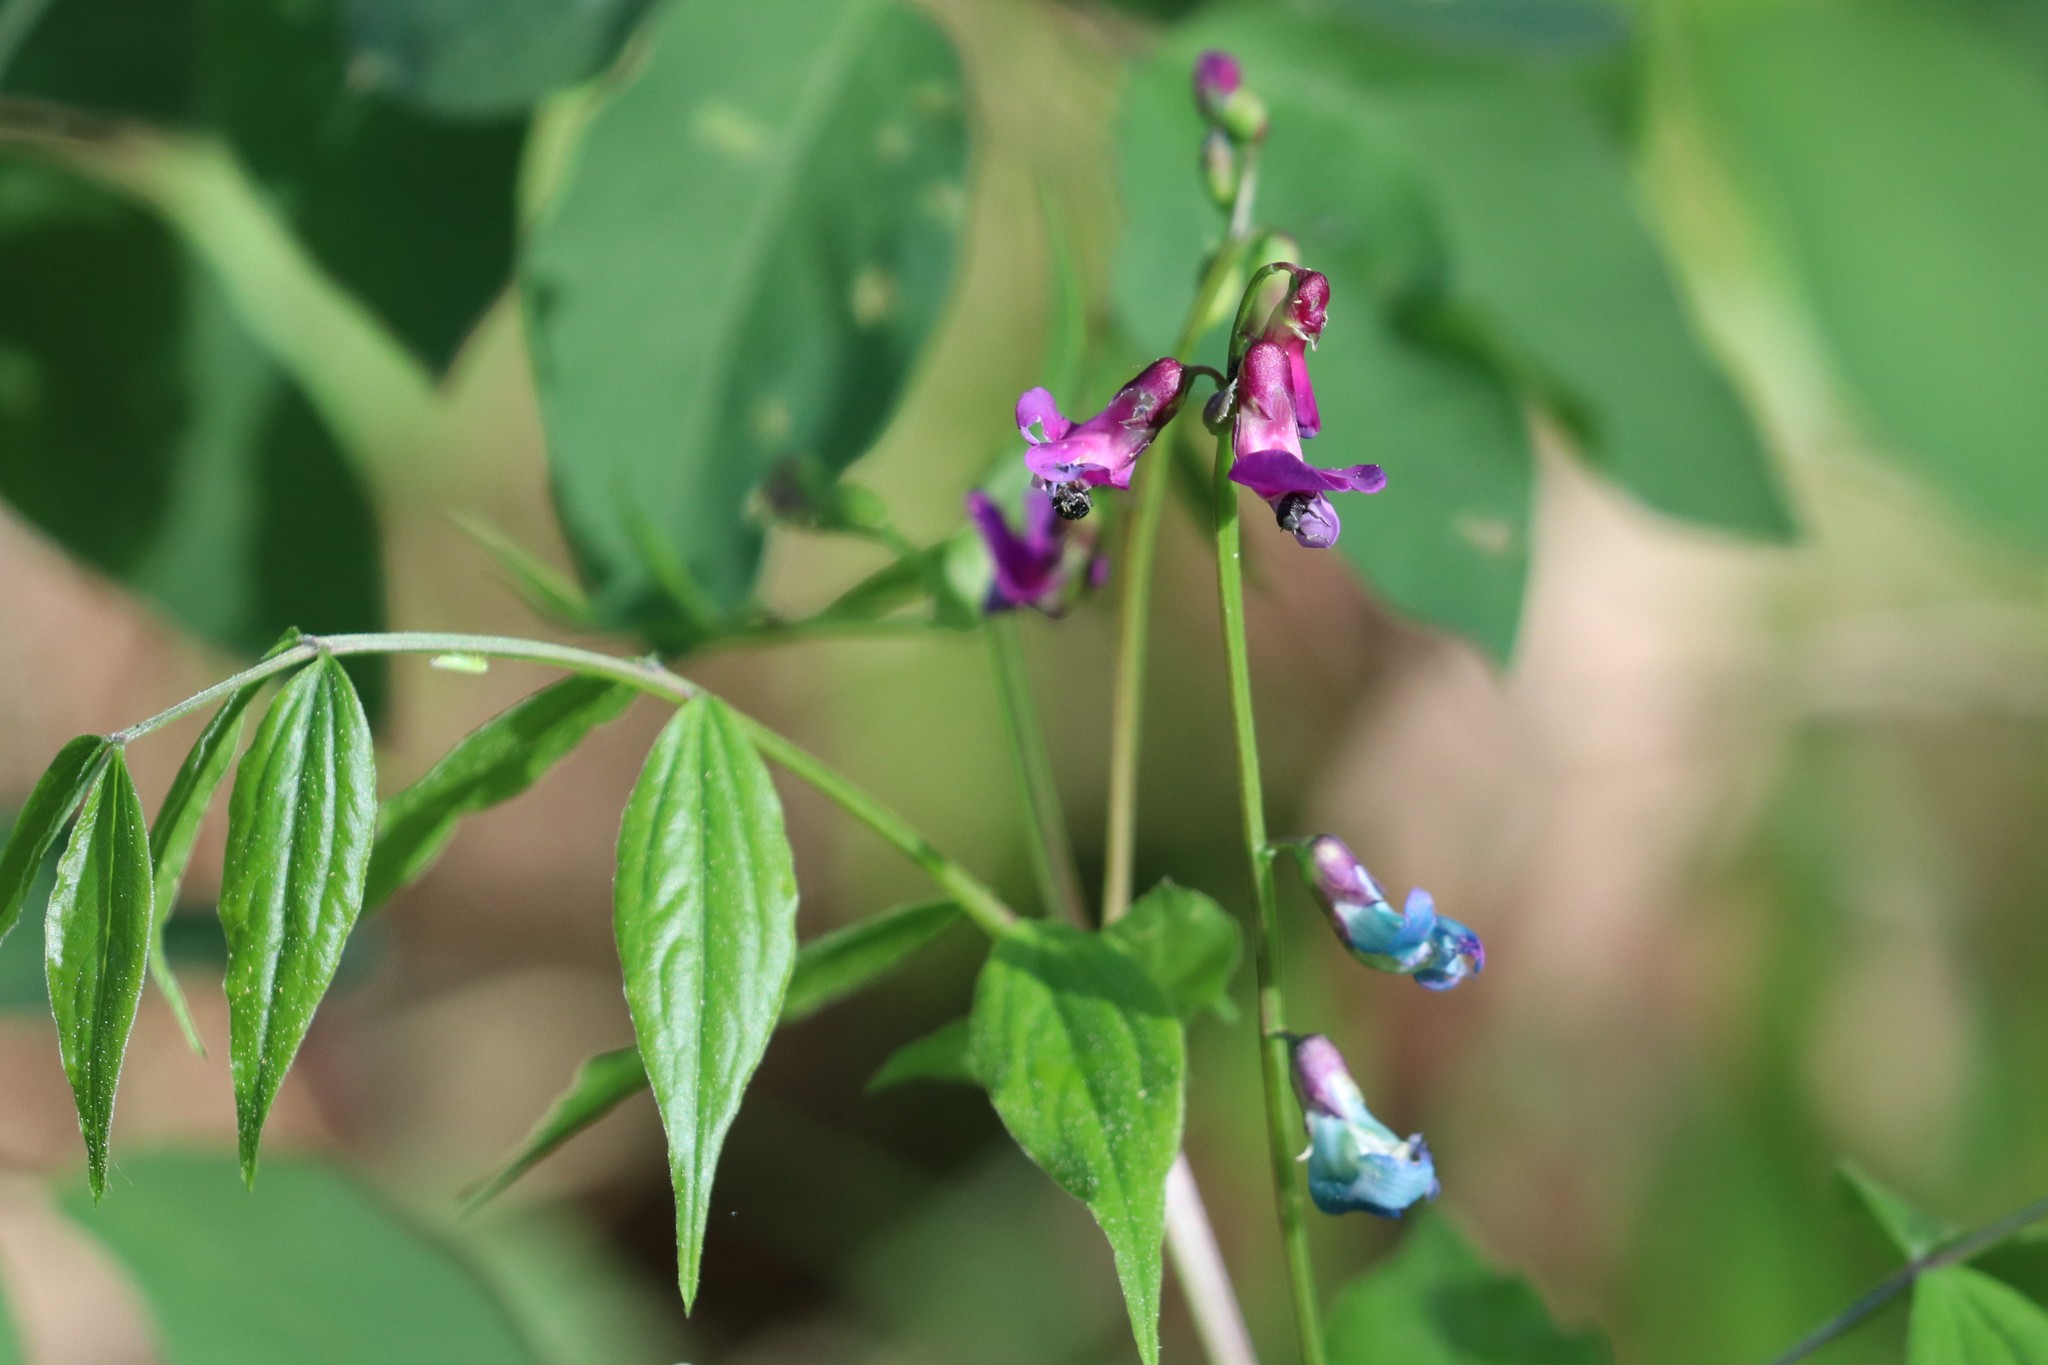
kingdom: Plantae
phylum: Tracheophyta
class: Magnoliopsida
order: Fabales
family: Fabaceae
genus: Lathyrus
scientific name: Lathyrus vernus
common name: Spring pea
